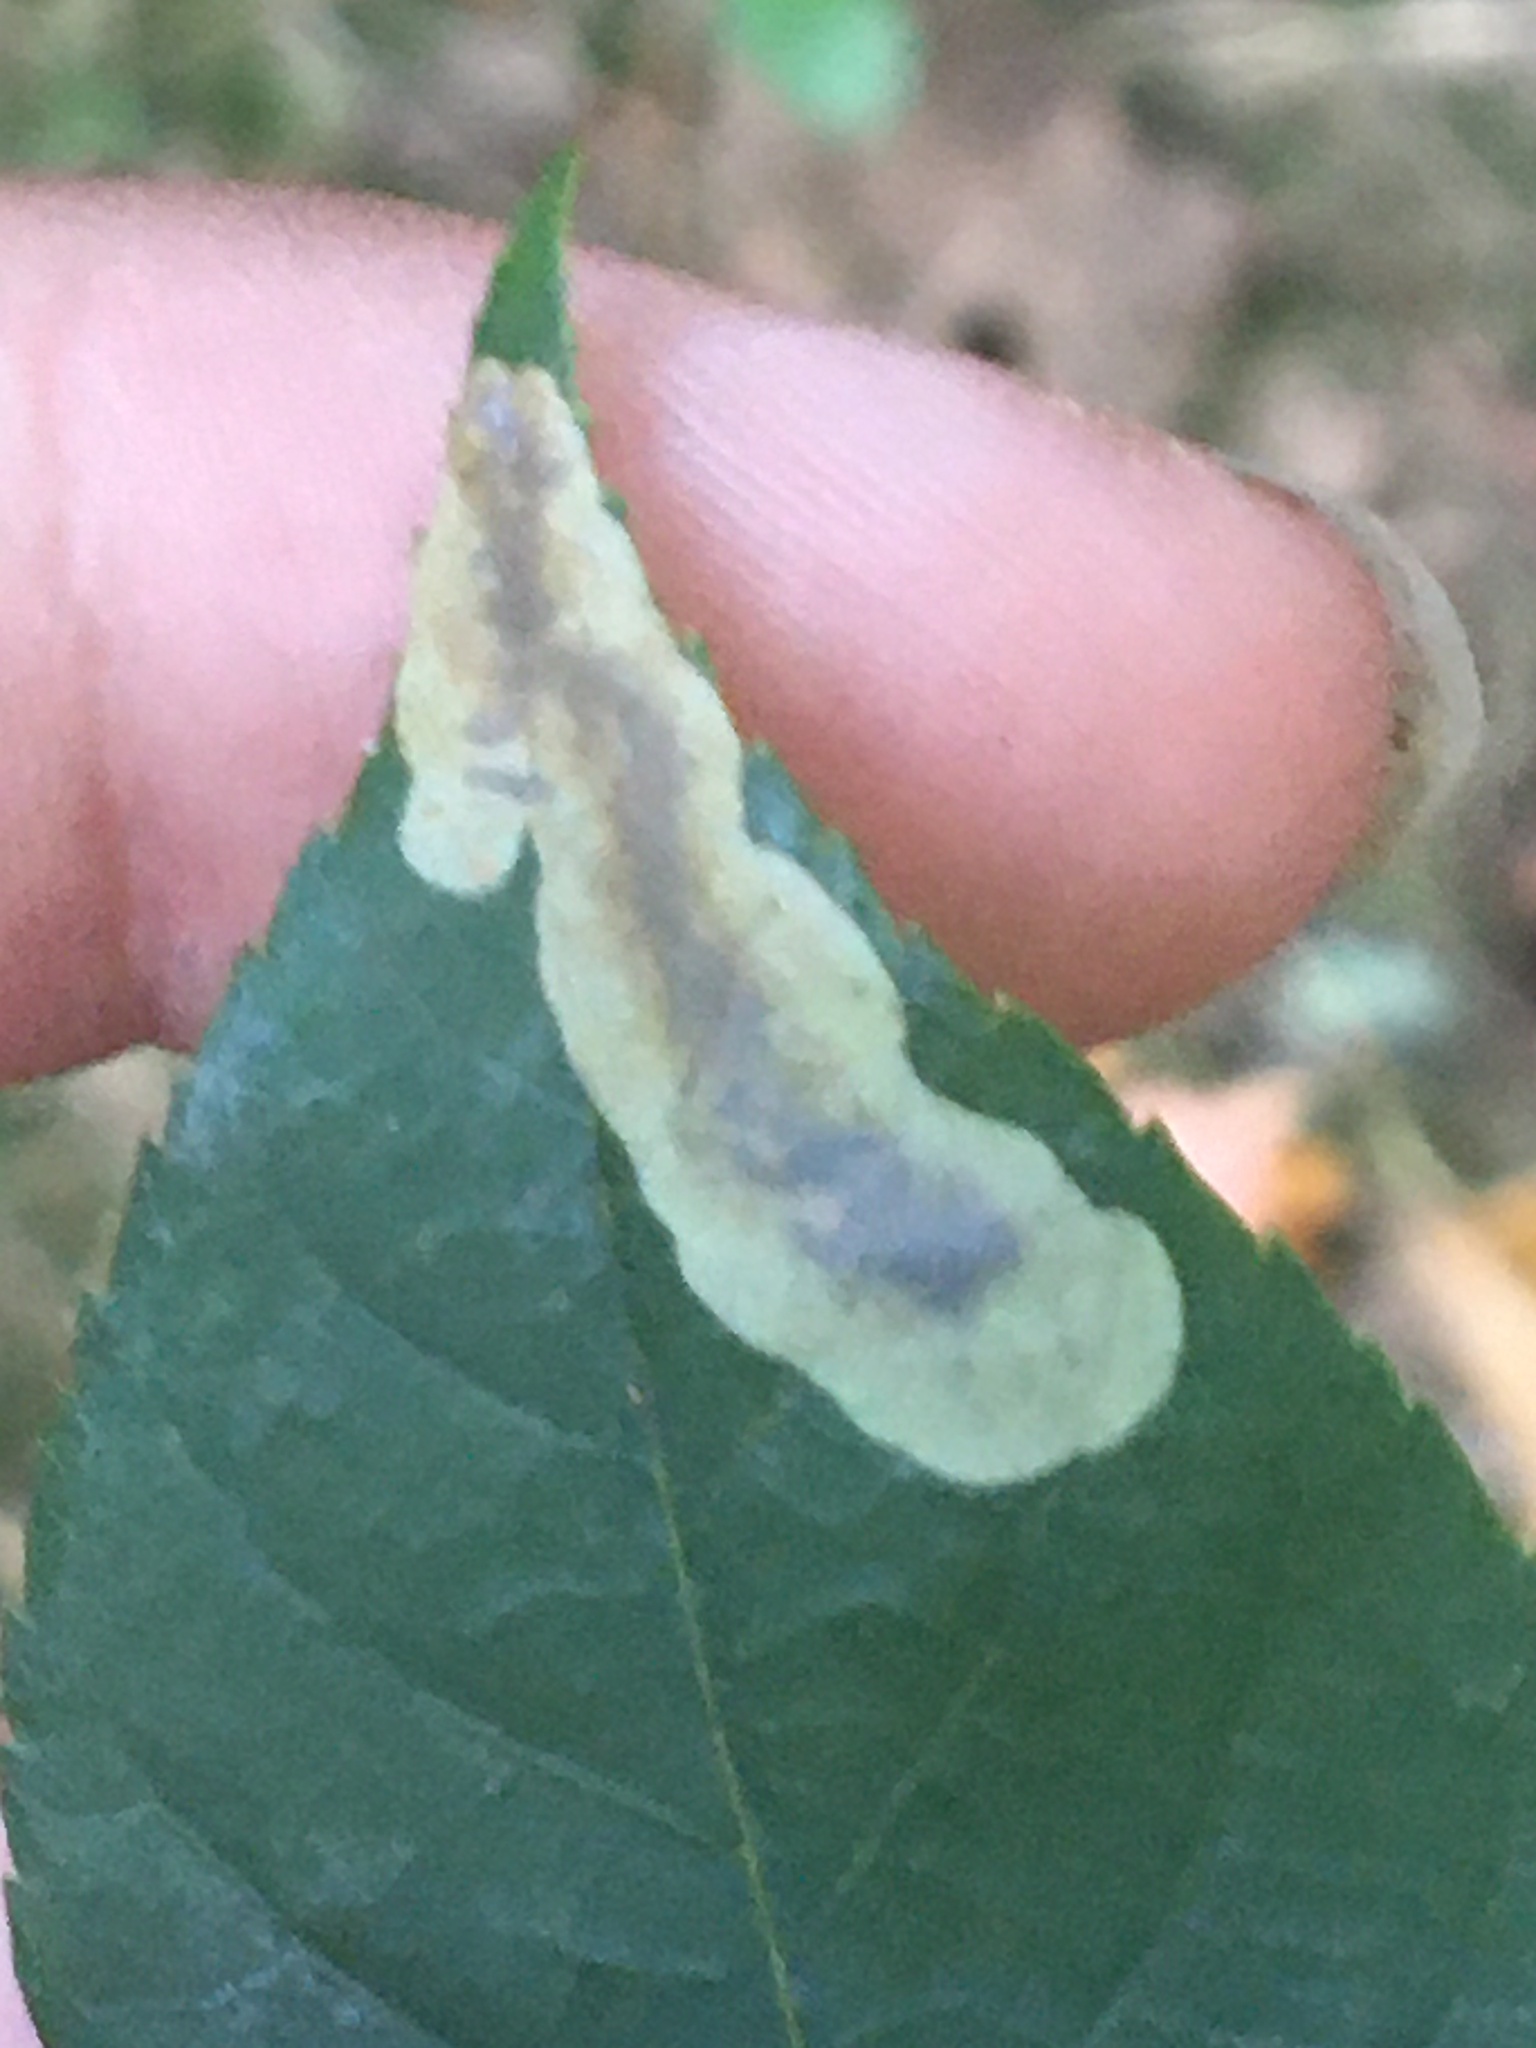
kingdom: Animalia
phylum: Arthropoda
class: Insecta
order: Lepidoptera
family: Gracillariidae
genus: Cameraria
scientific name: Cameraria caryaefoliella
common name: Pecan leafminer moth
